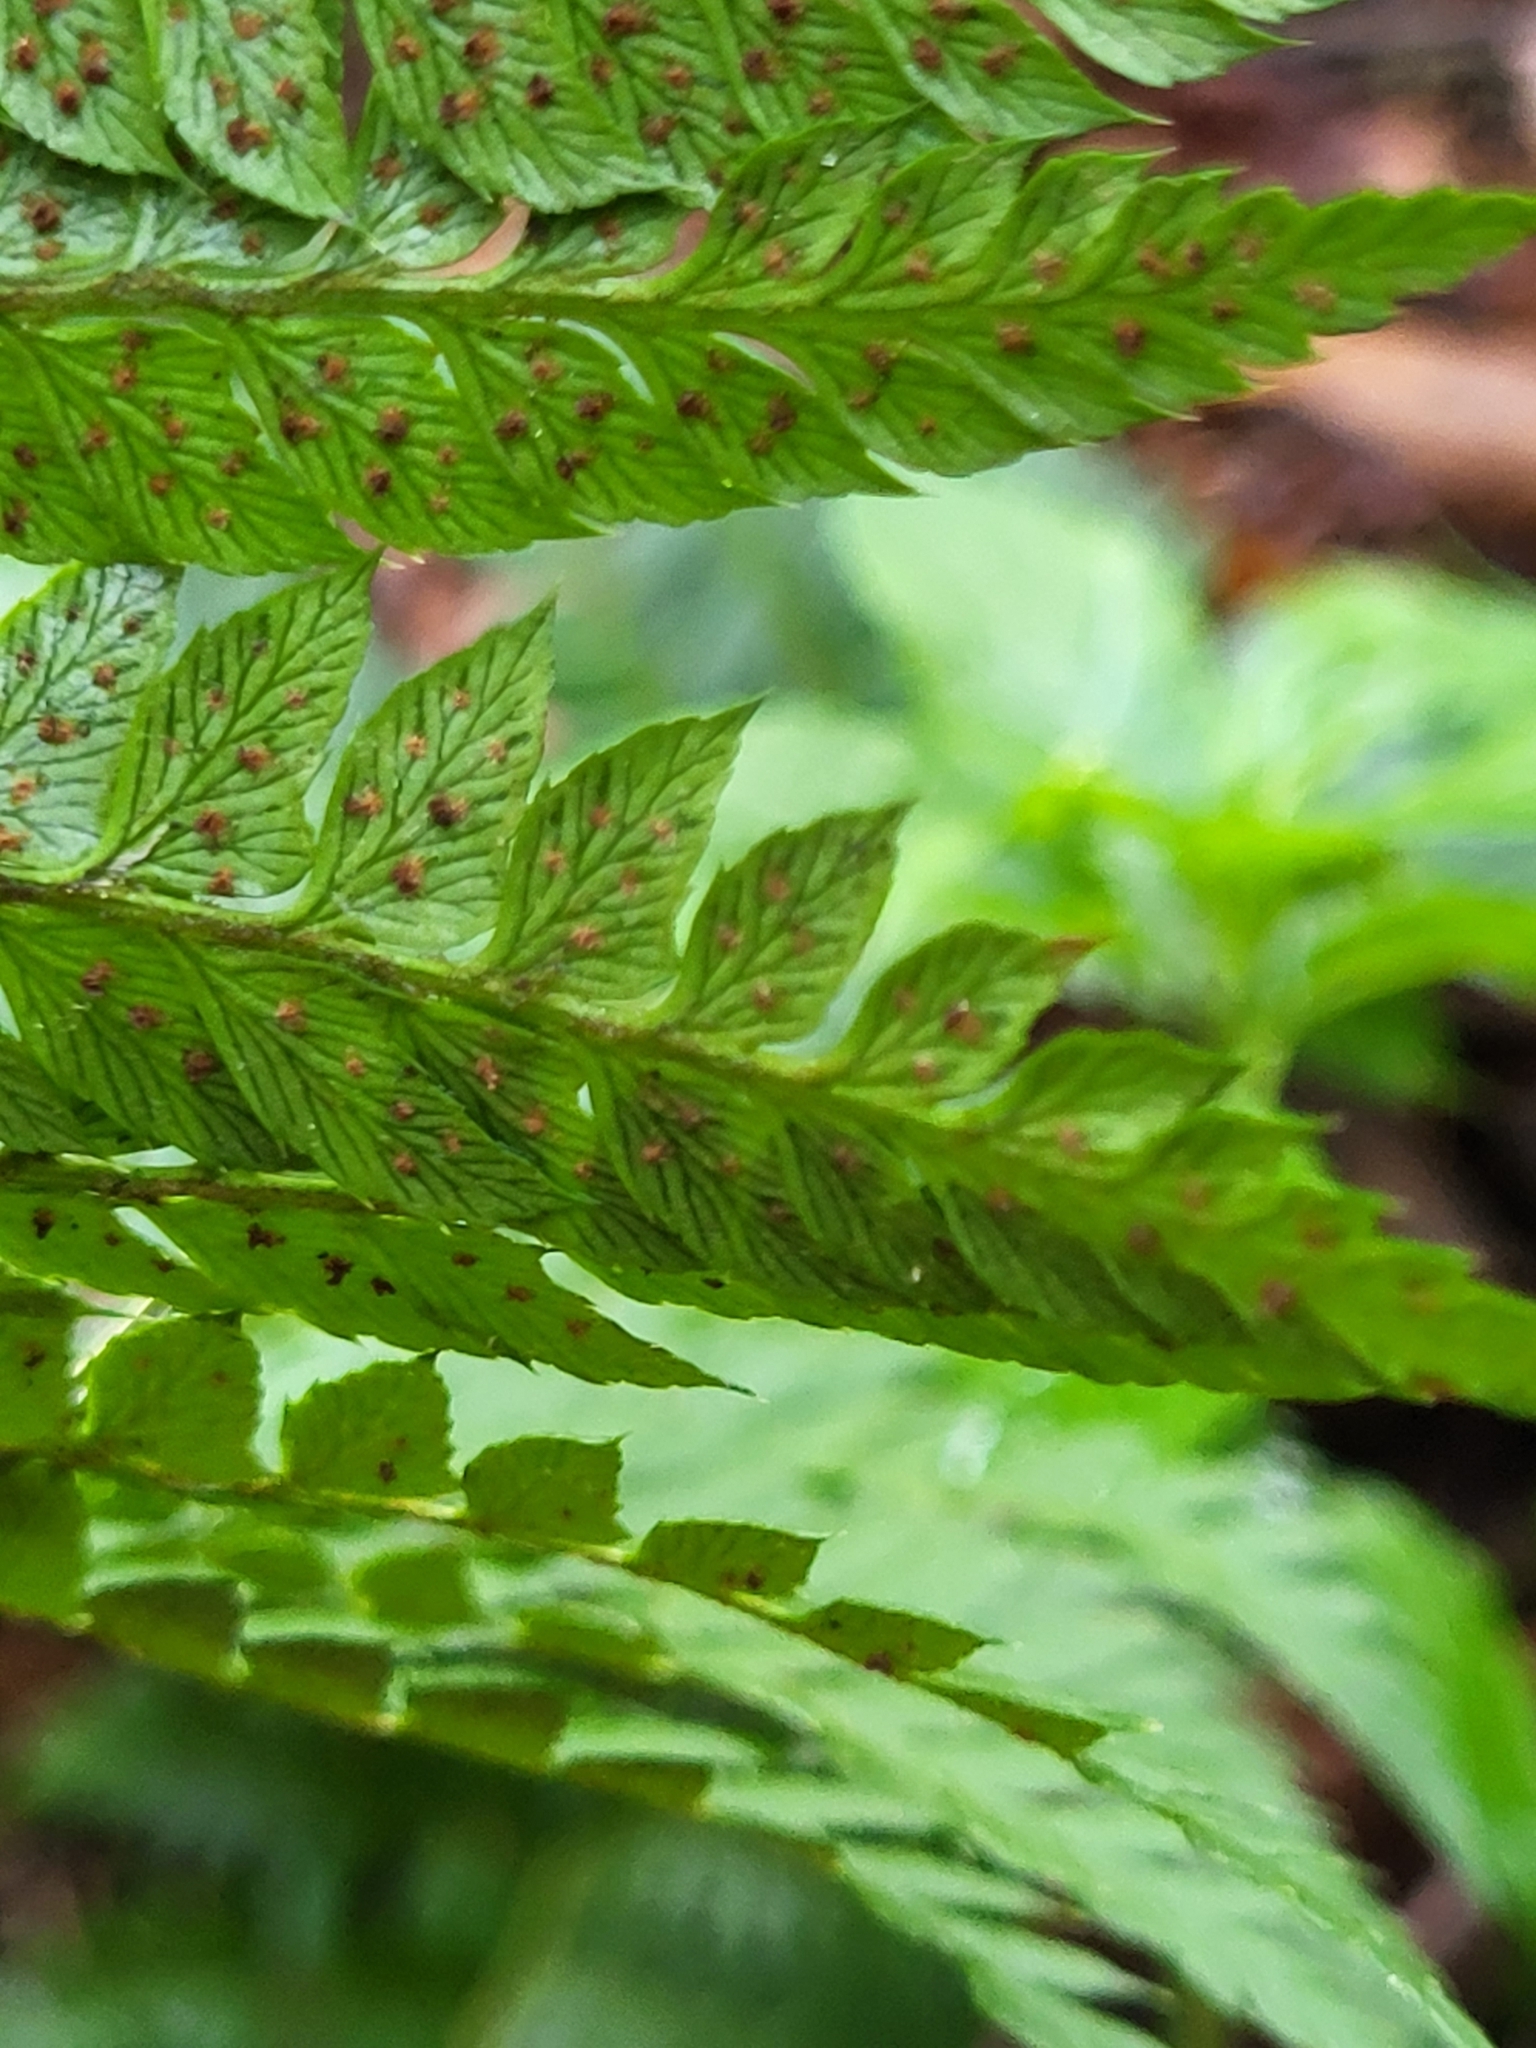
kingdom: Plantae
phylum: Tracheophyta
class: Polypodiopsida
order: Polypodiales
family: Dryopteridaceae
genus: Polystichum
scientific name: Polystichum aculeatum
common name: Hard shield-fern
